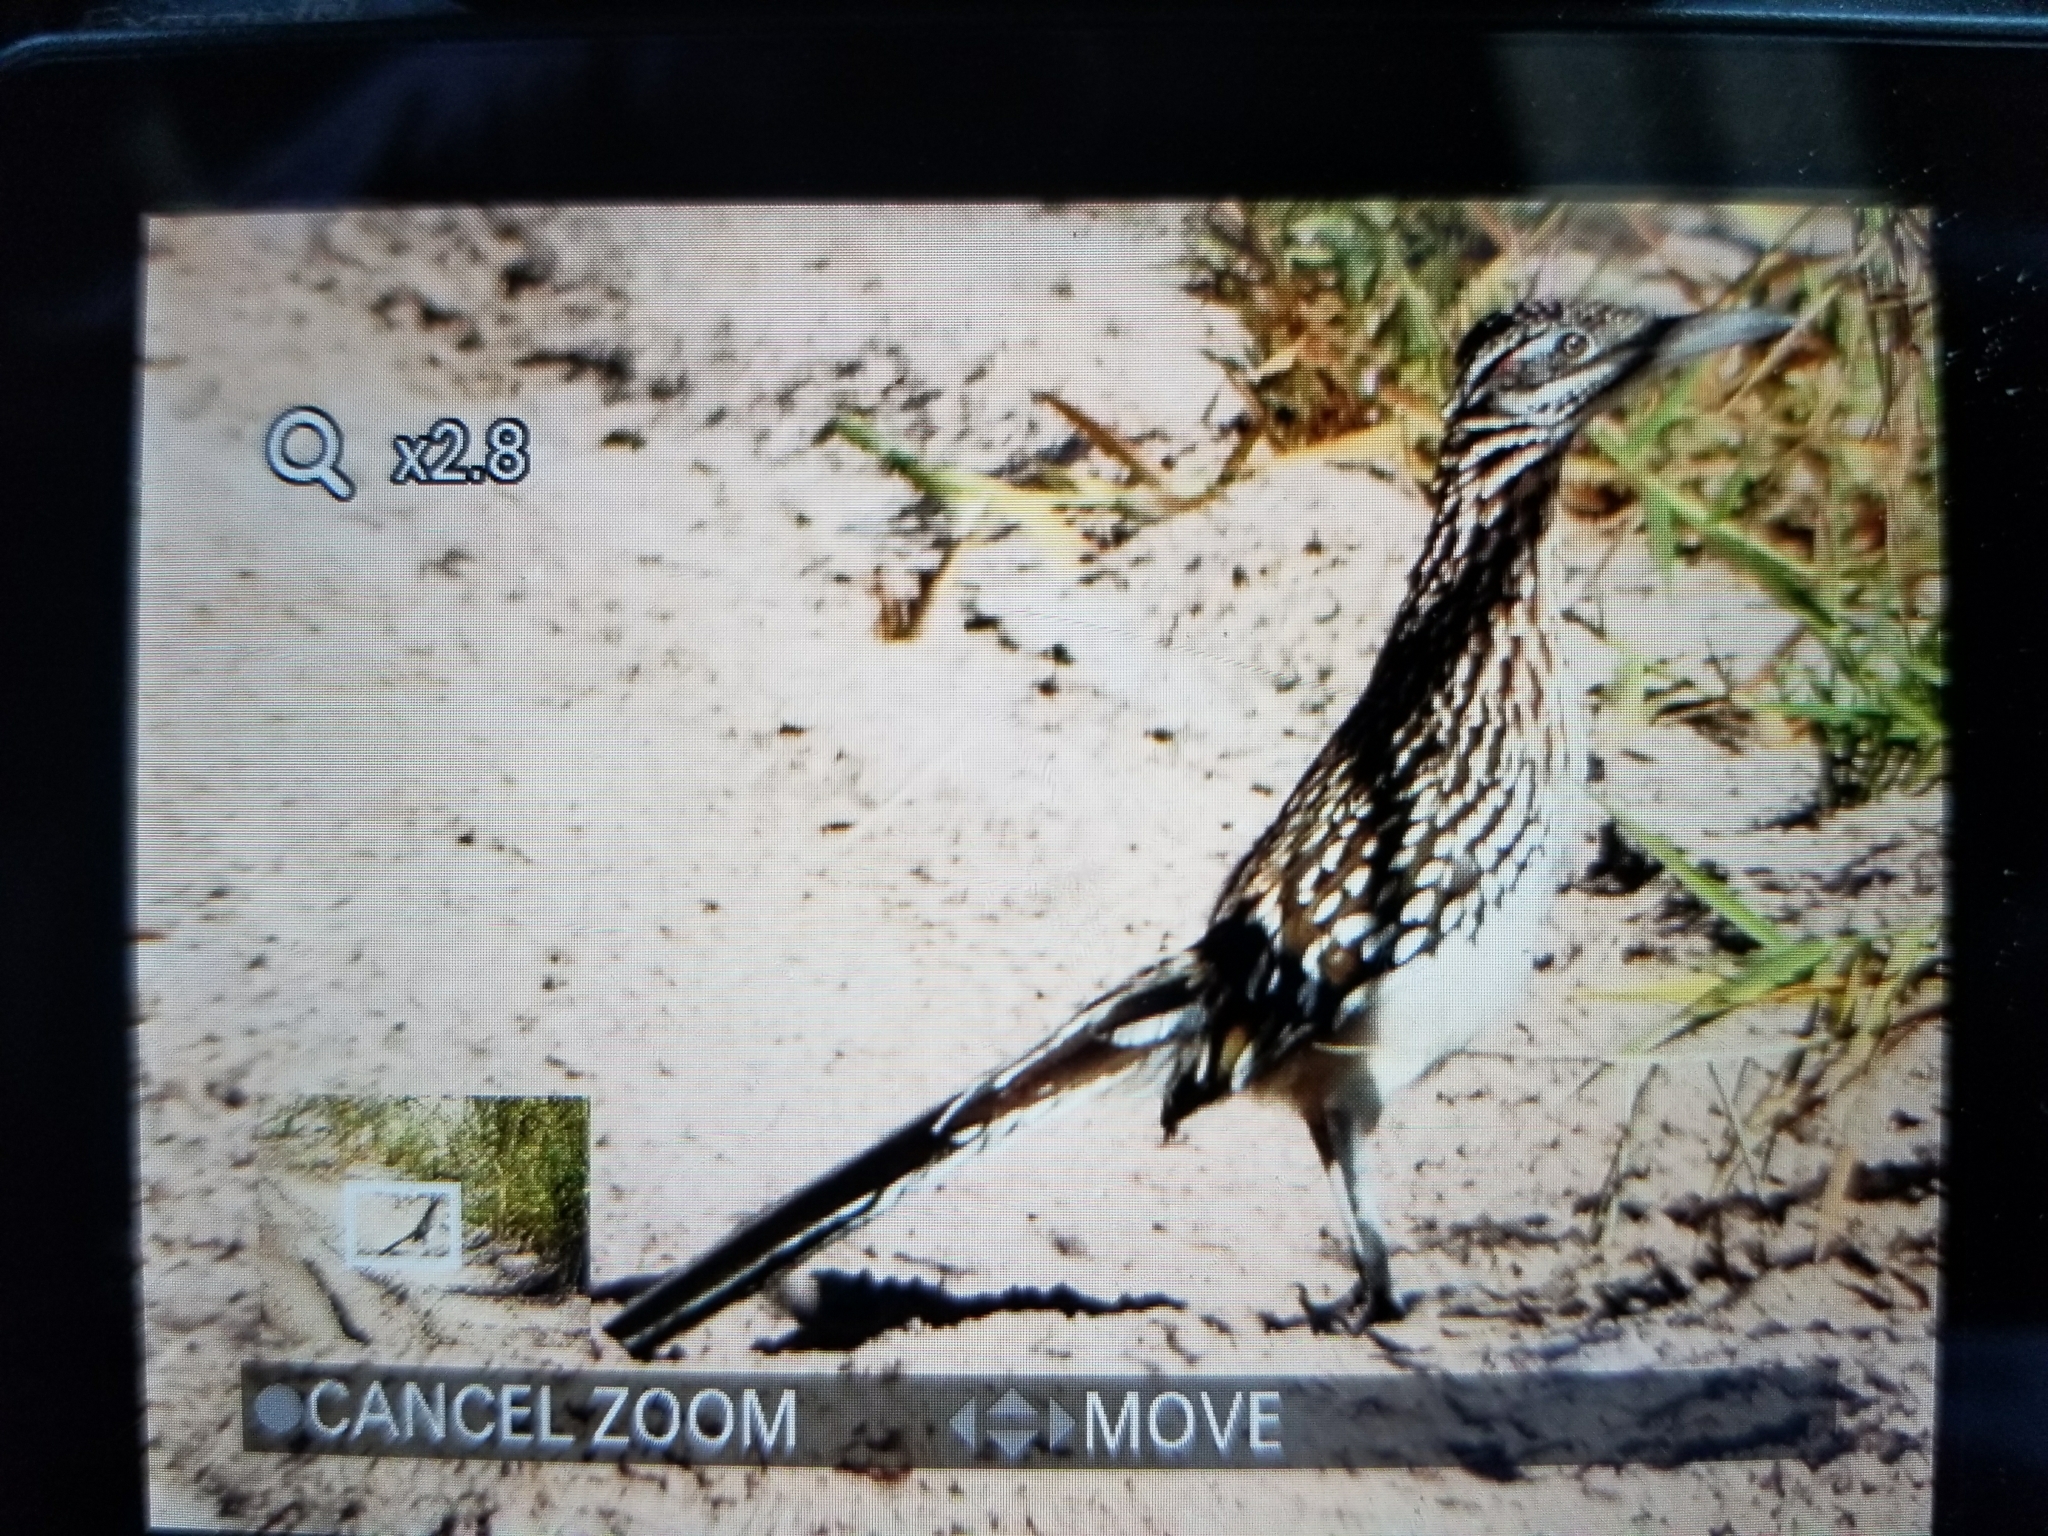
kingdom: Animalia
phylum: Chordata
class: Aves
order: Cuculiformes
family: Cuculidae
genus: Geococcyx
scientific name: Geococcyx californianus
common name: Greater roadrunner
